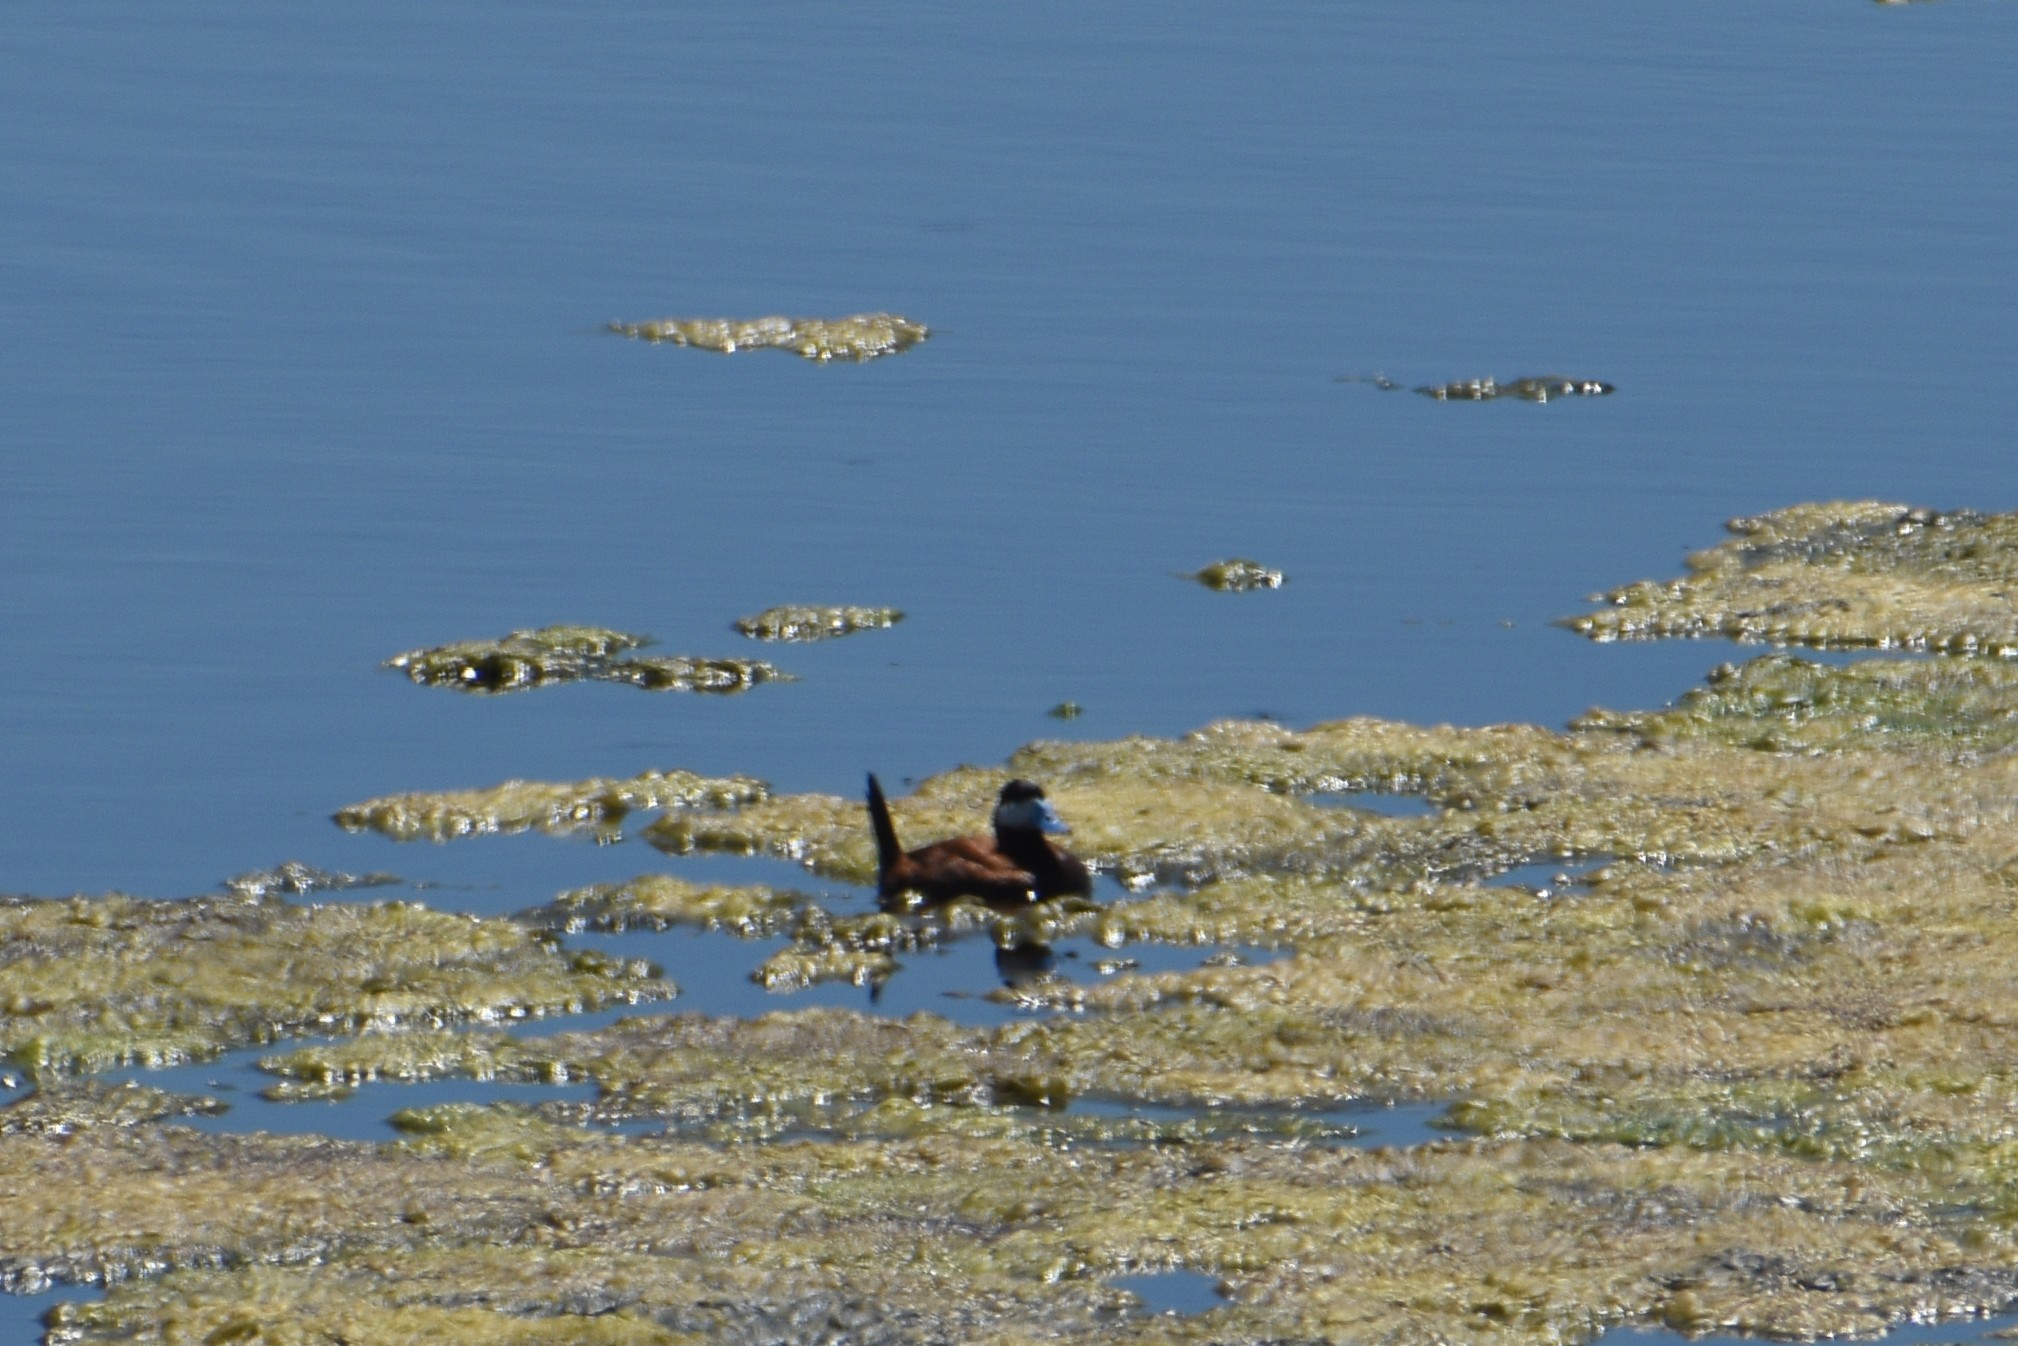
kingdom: Animalia
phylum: Chordata
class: Aves
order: Anseriformes
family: Anatidae
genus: Oxyura
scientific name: Oxyura jamaicensis
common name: Ruddy duck
